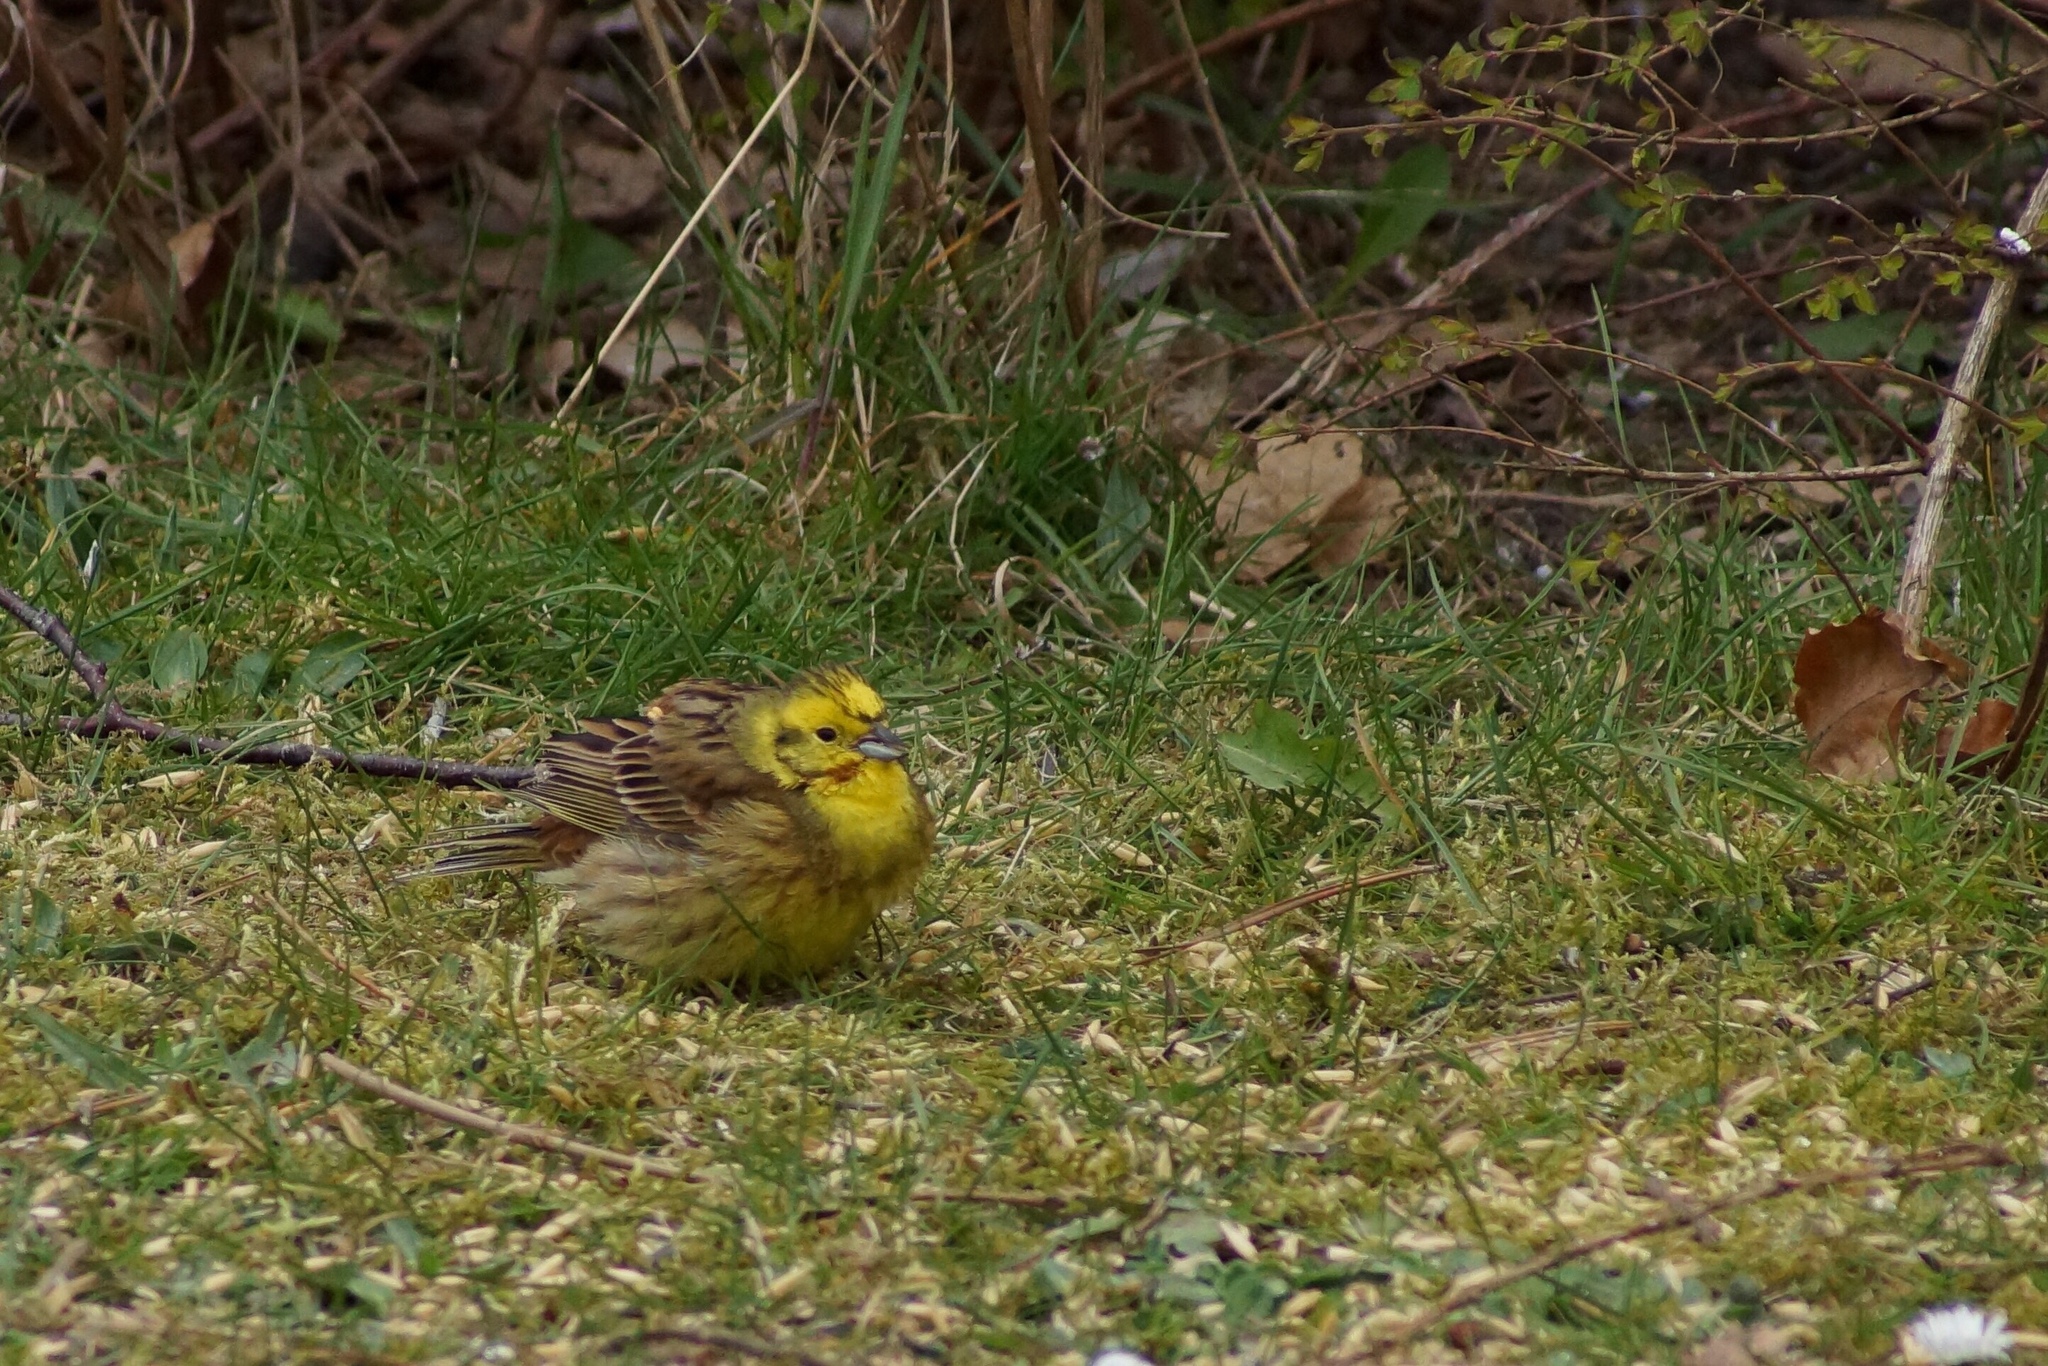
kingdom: Animalia
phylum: Chordata
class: Aves
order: Passeriformes
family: Emberizidae
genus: Emberiza
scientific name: Emberiza citrinella
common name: Yellowhammer
